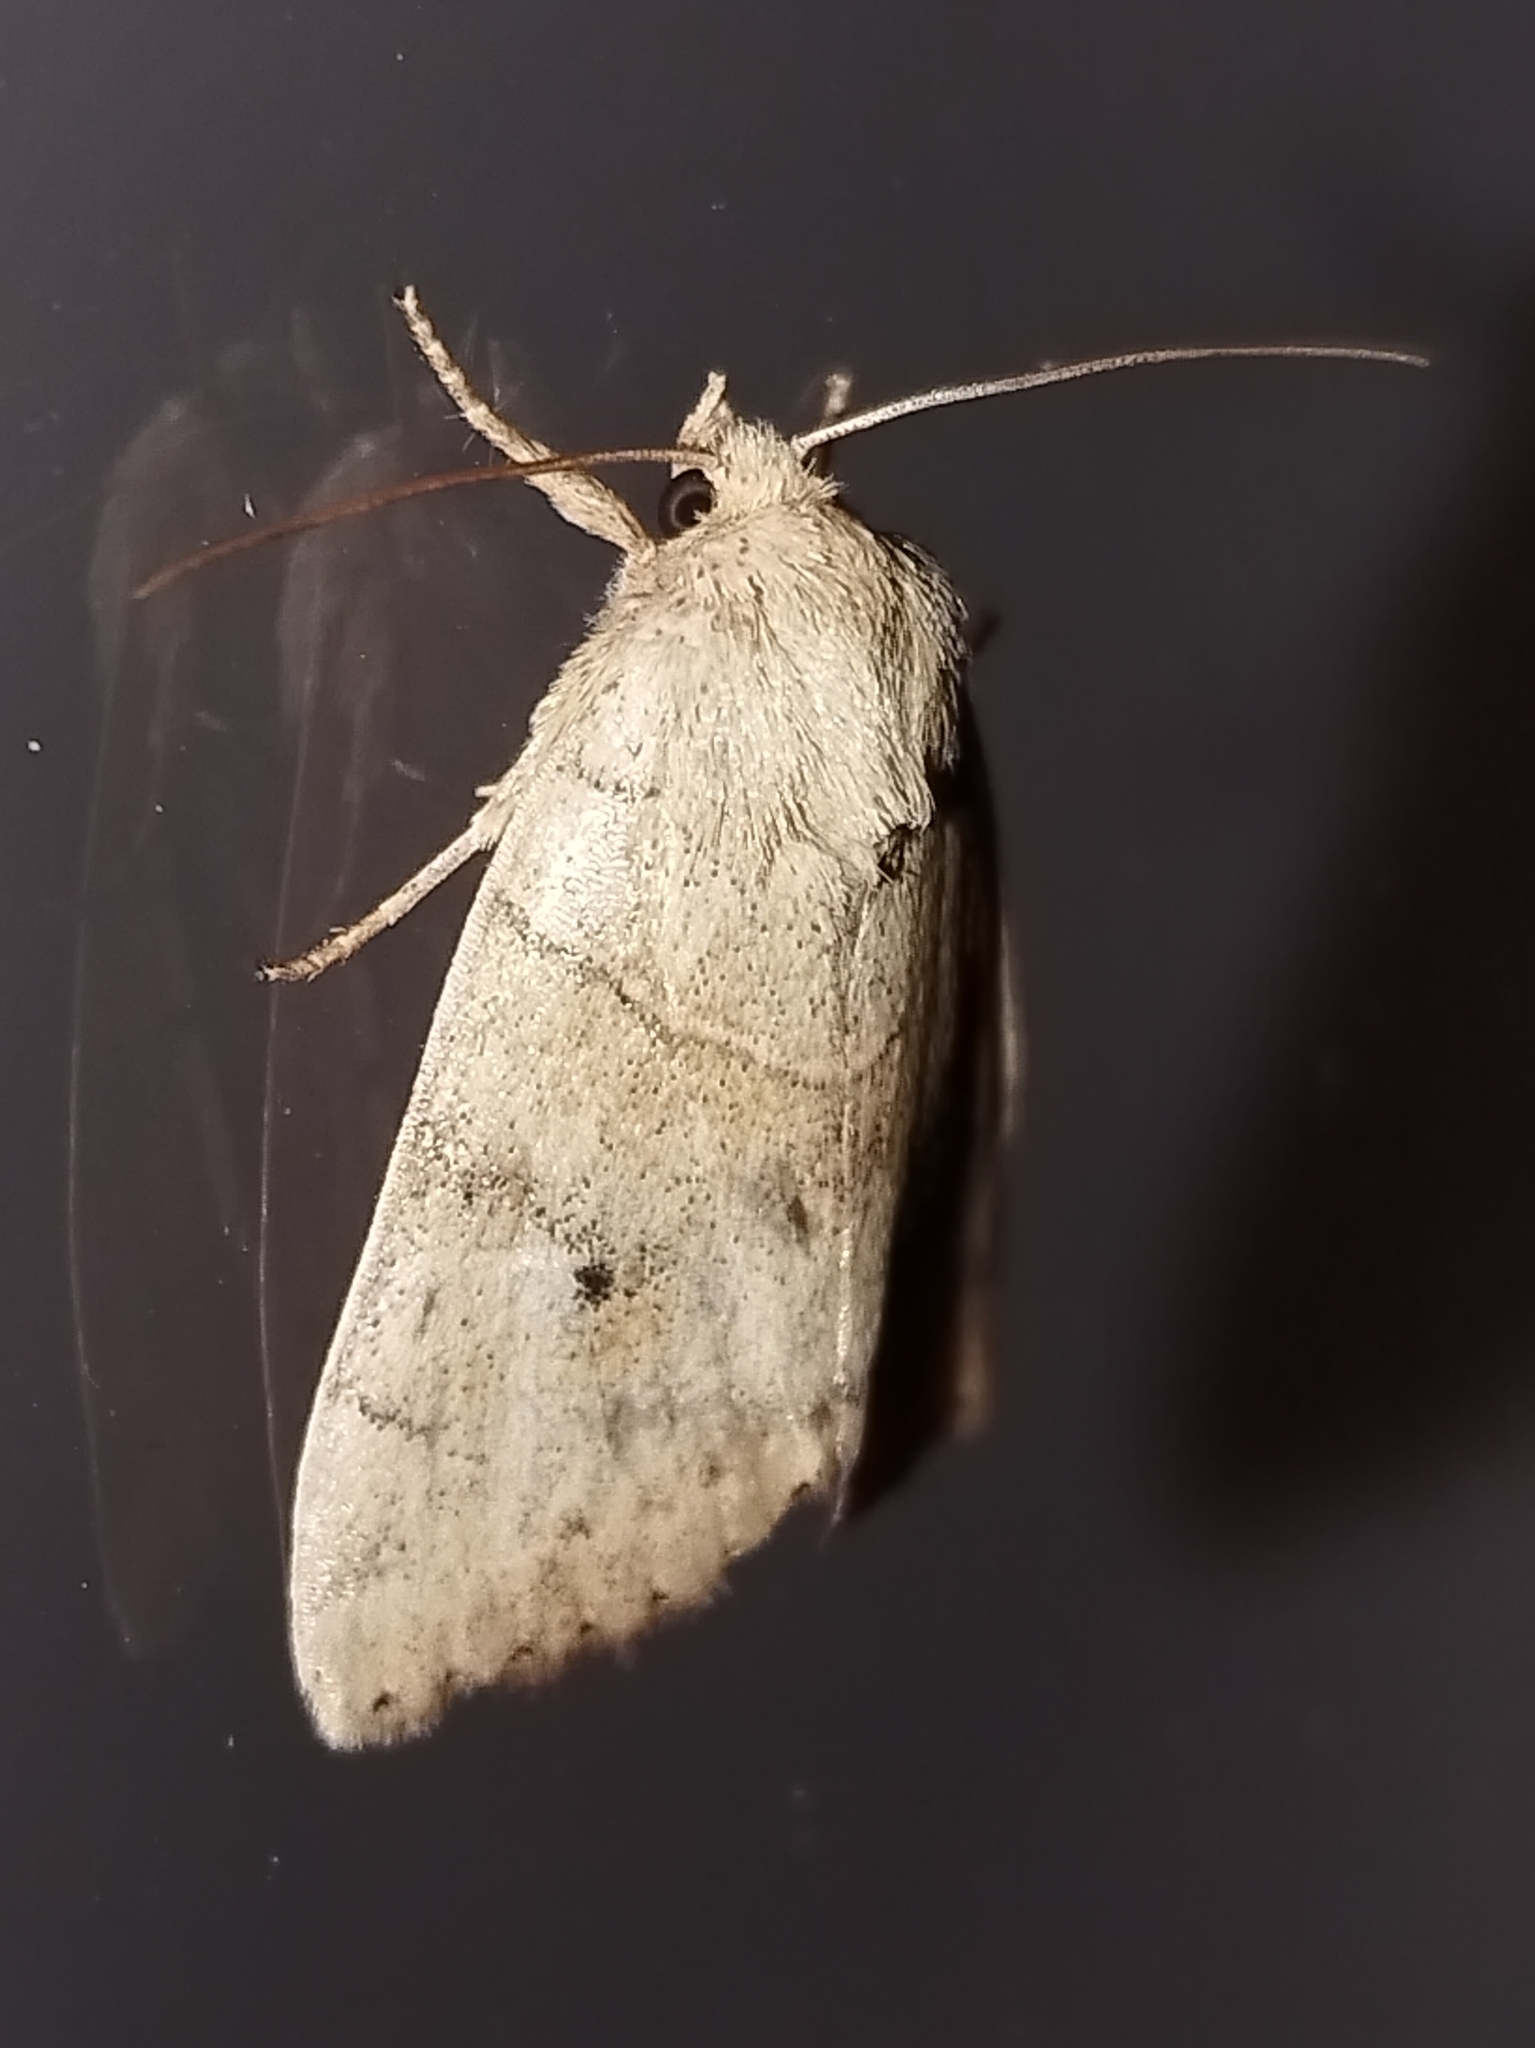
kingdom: Animalia
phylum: Arthropoda
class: Insecta
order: Lepidoptera
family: Noctuidae
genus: Cosmia
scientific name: Cosmia trapezina
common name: Dun-bar
